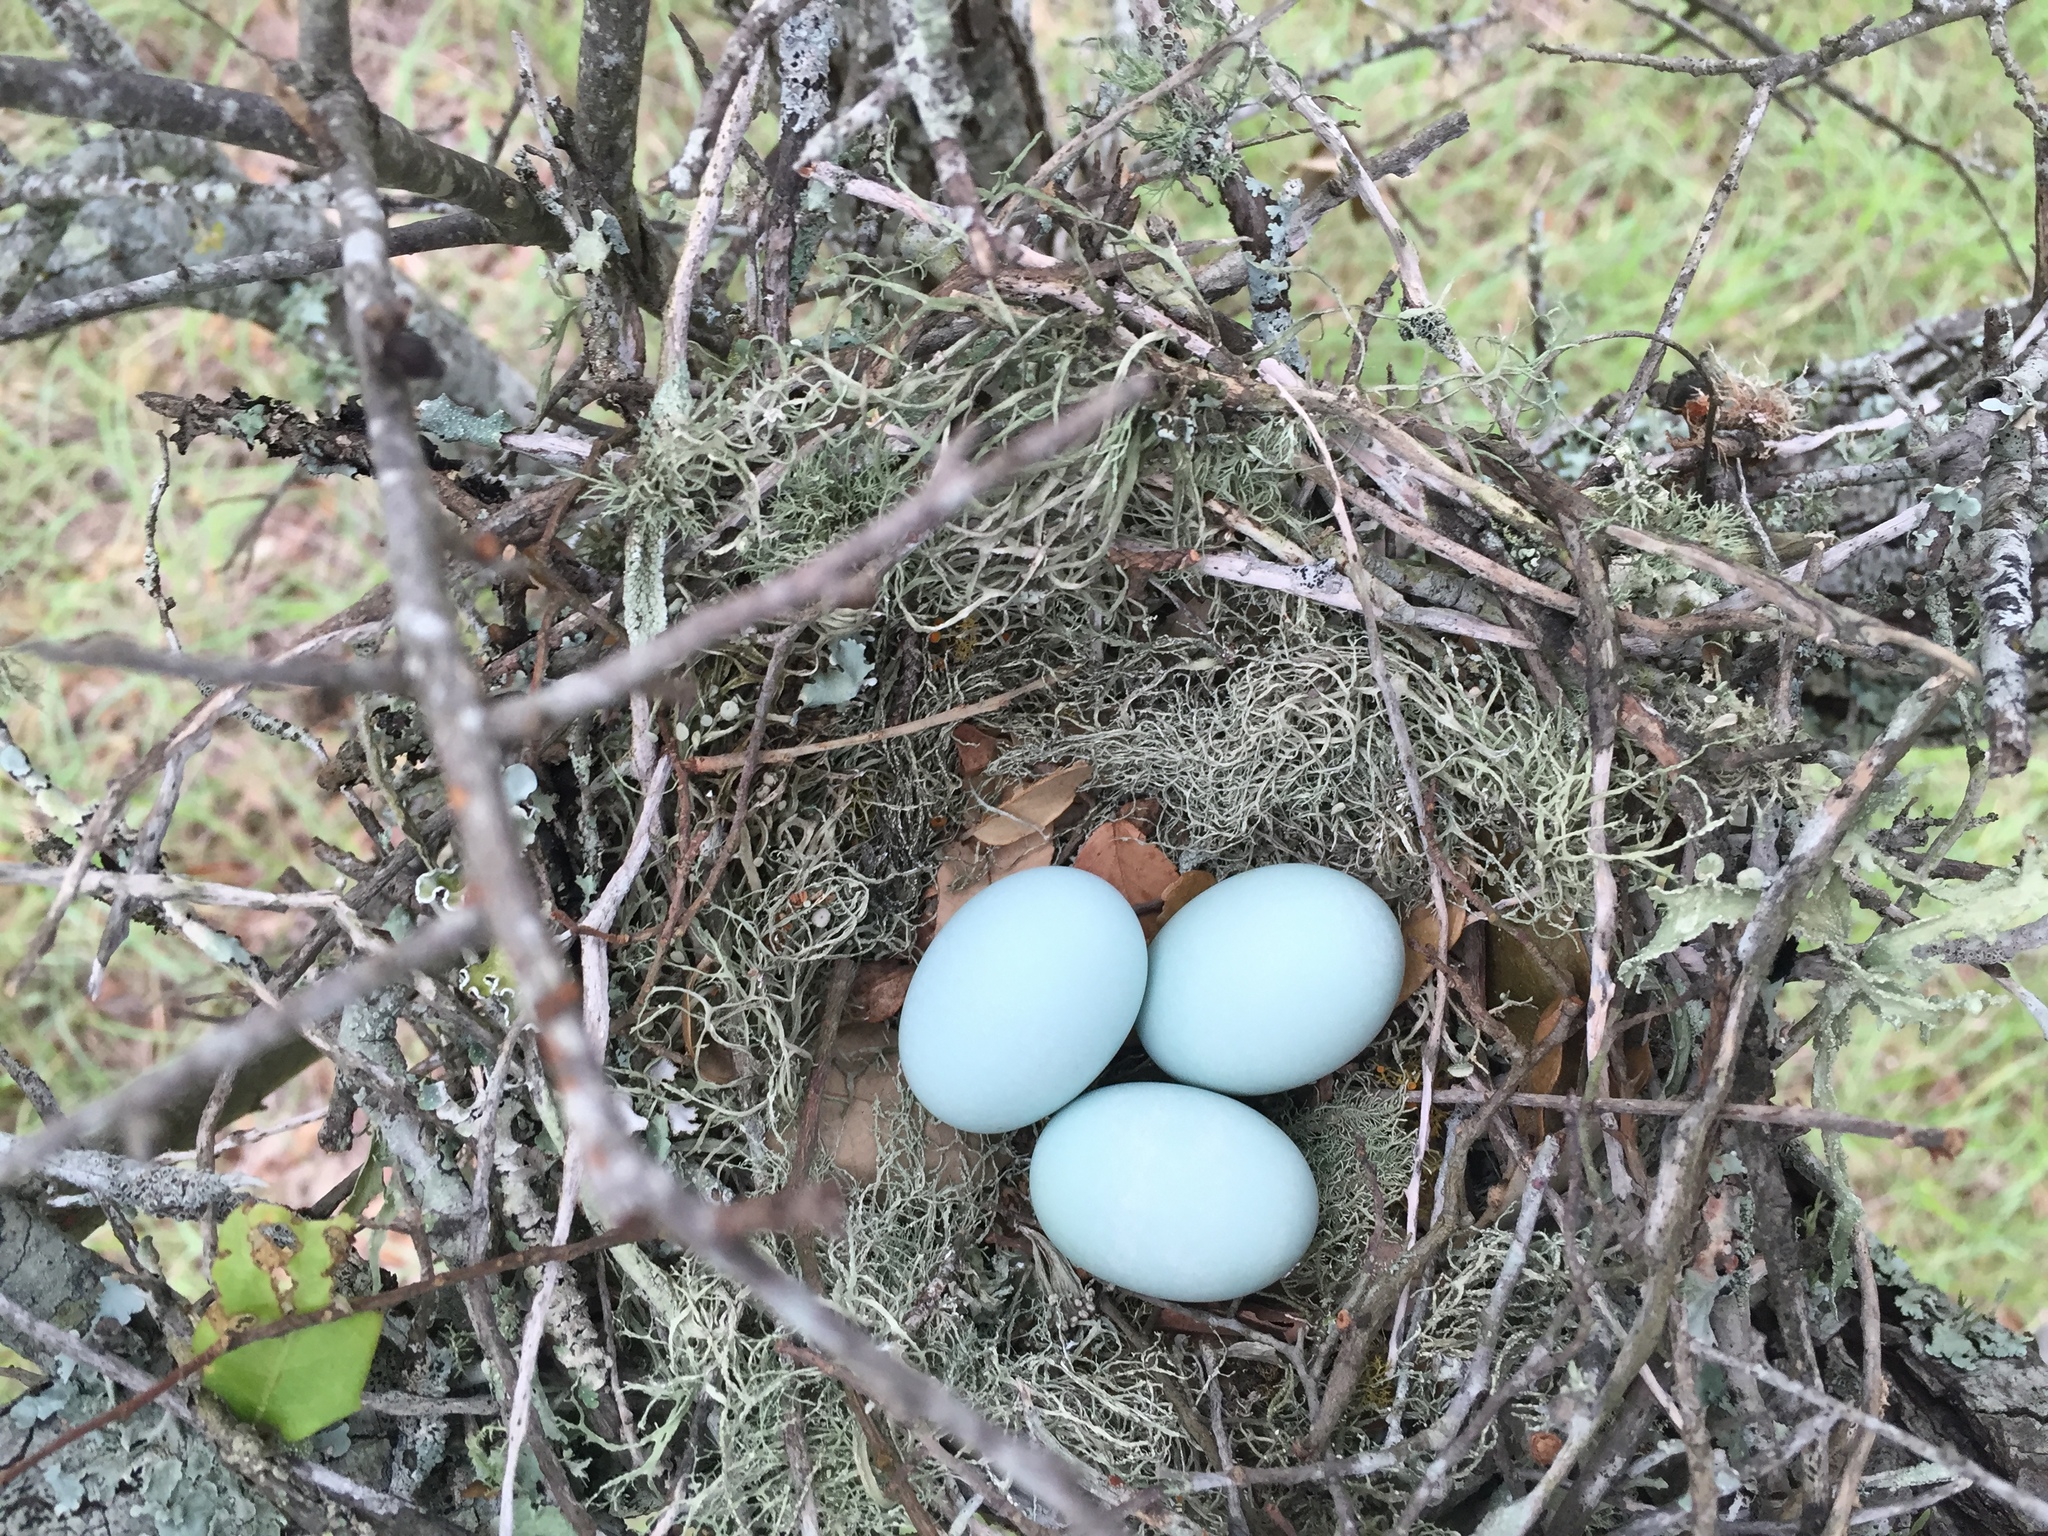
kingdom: Animalia
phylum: Chordata
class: Aves
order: Cuculiformes
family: Cuculidae
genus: Coccyzus
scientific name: Coccyzus americanus
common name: Yellow-billed cuckoo
